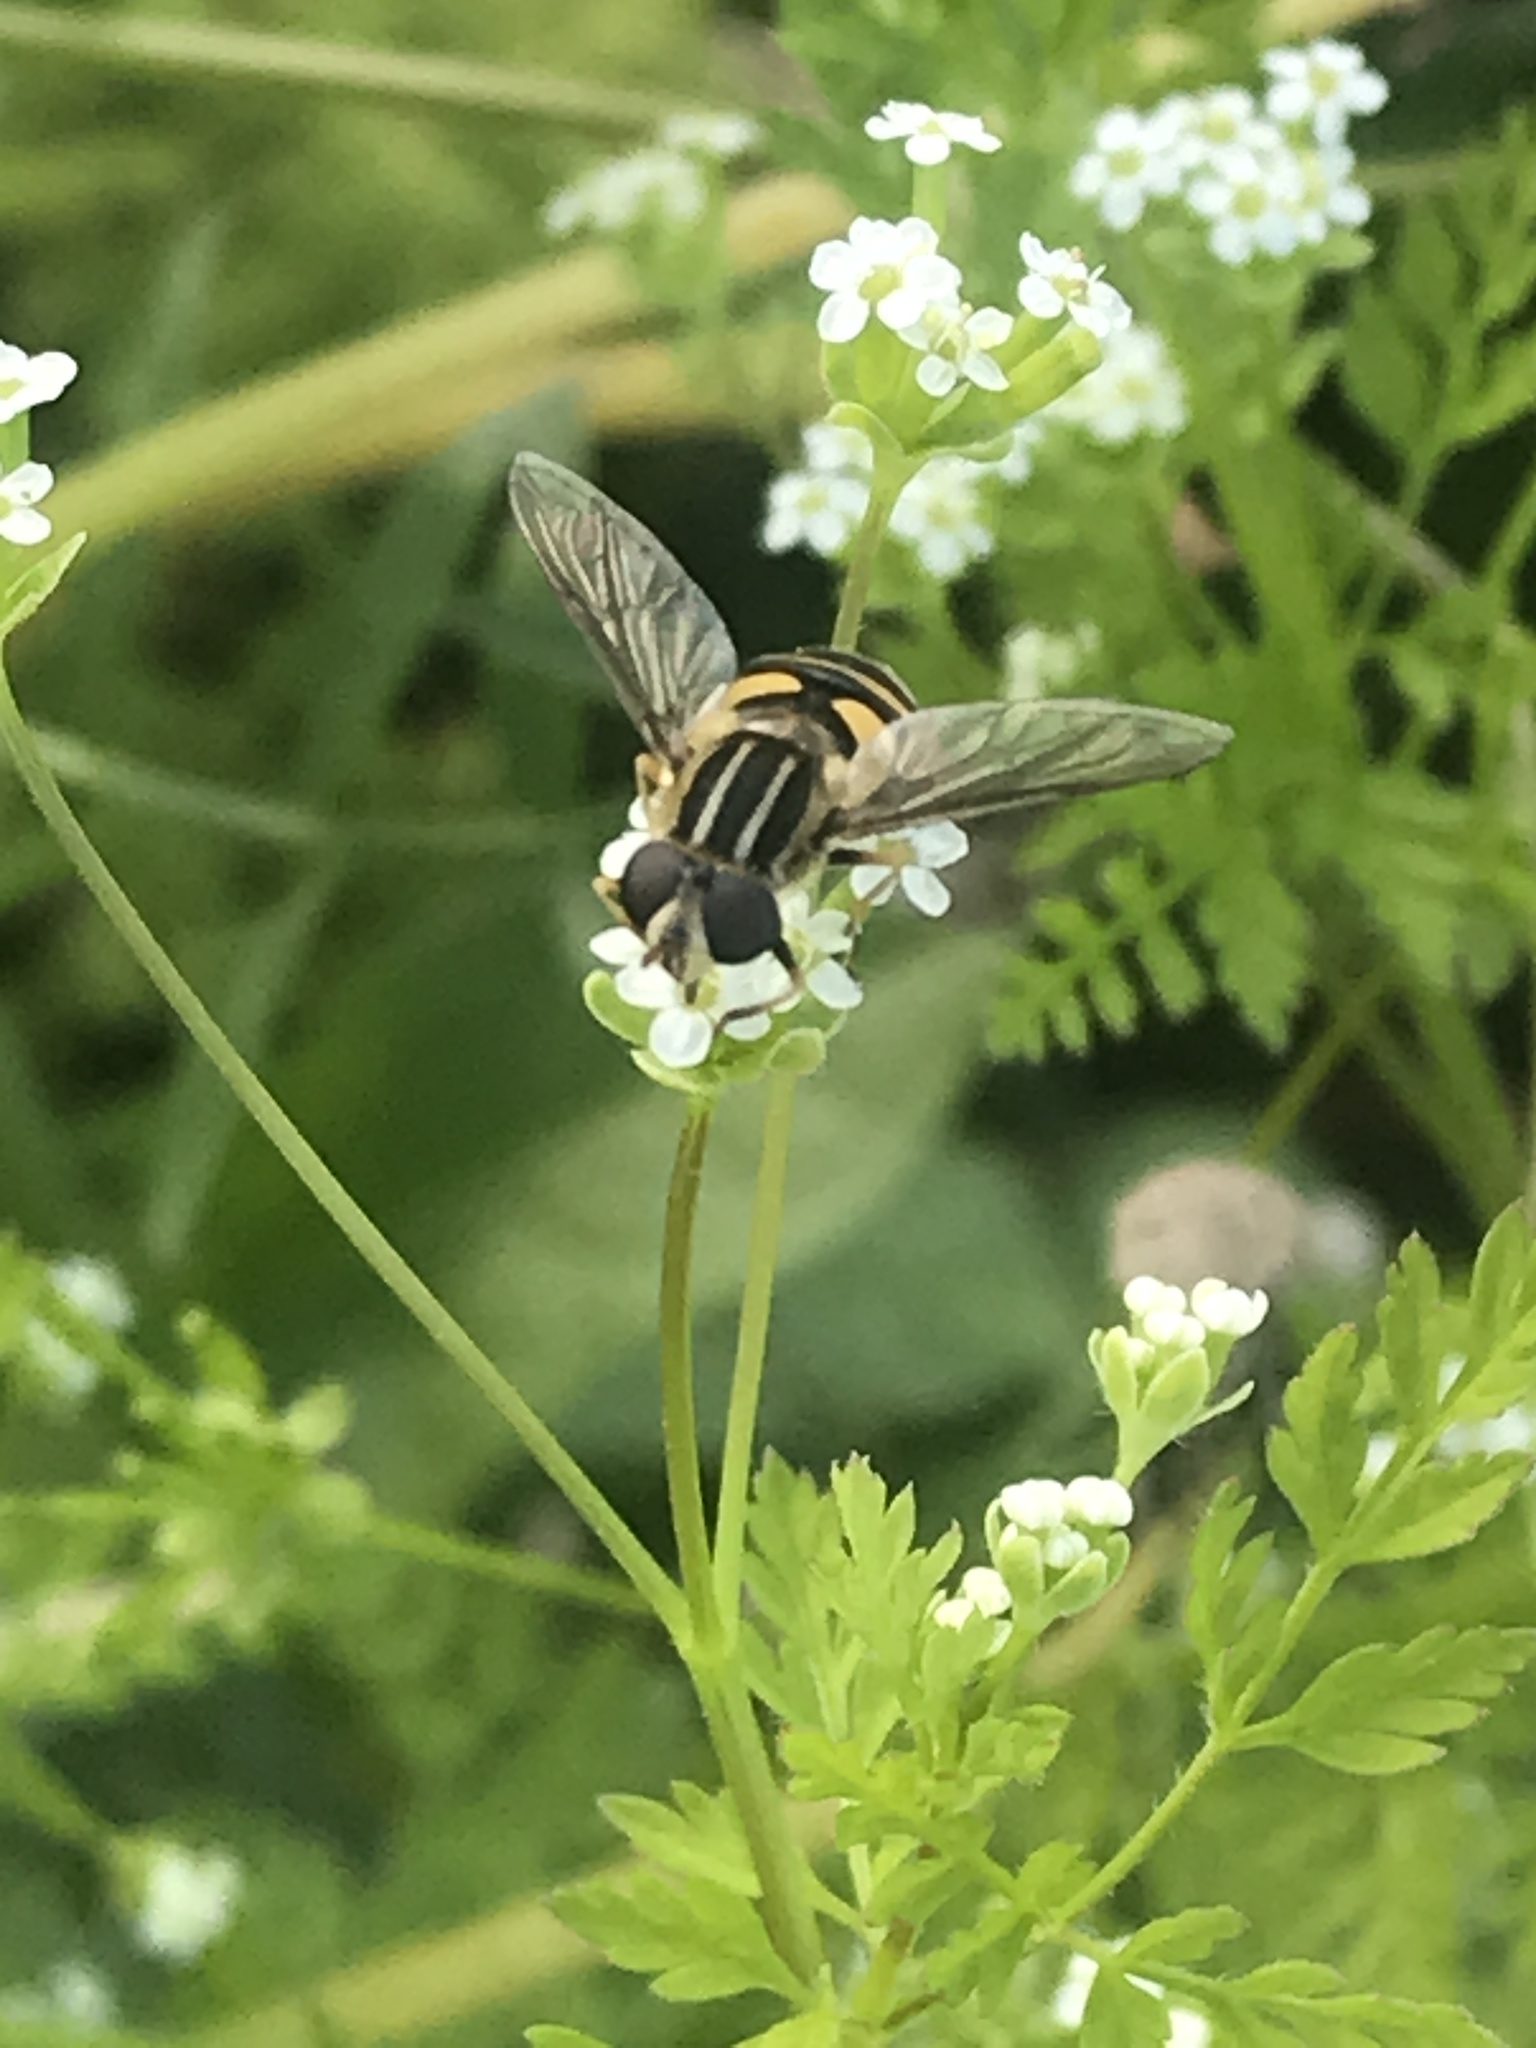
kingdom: Animalia
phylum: Arthropoda
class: Insecta
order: Diptera
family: Syrphidae
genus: Helophilus
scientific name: Helophilus fasciatus
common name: Narrow-headed marsh fly
